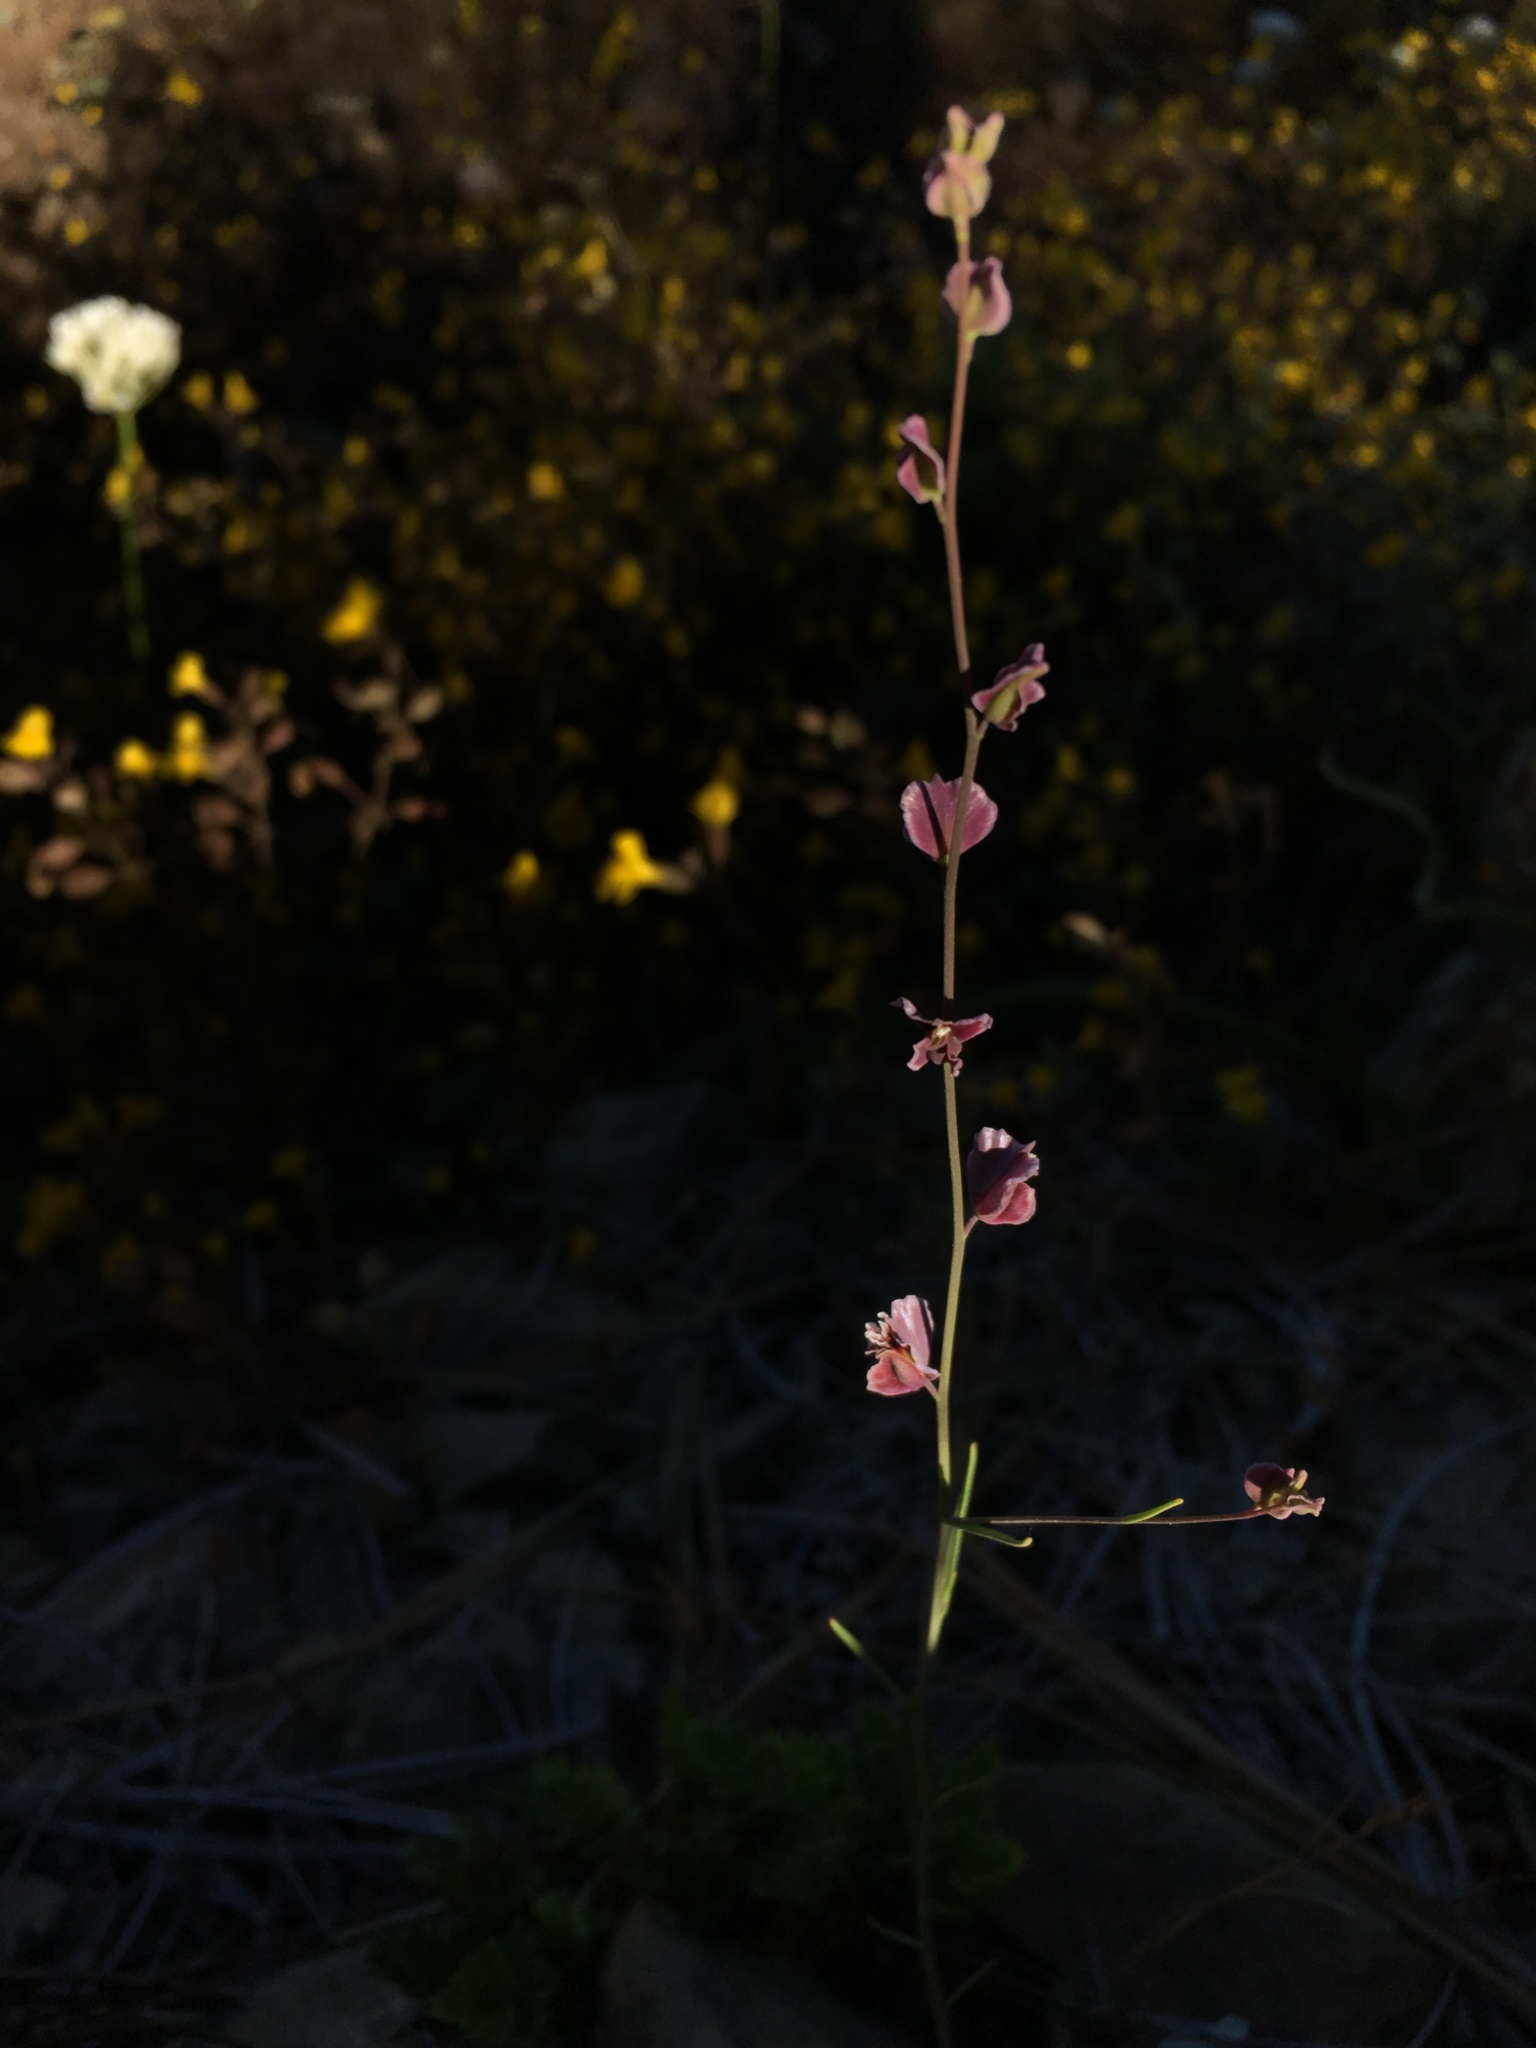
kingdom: Plantae
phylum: Tracheophyta
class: Magnoliopsida
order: Brassicales
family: Brassicaceae
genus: Streptanthus
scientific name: Streptanthus polygaloides
